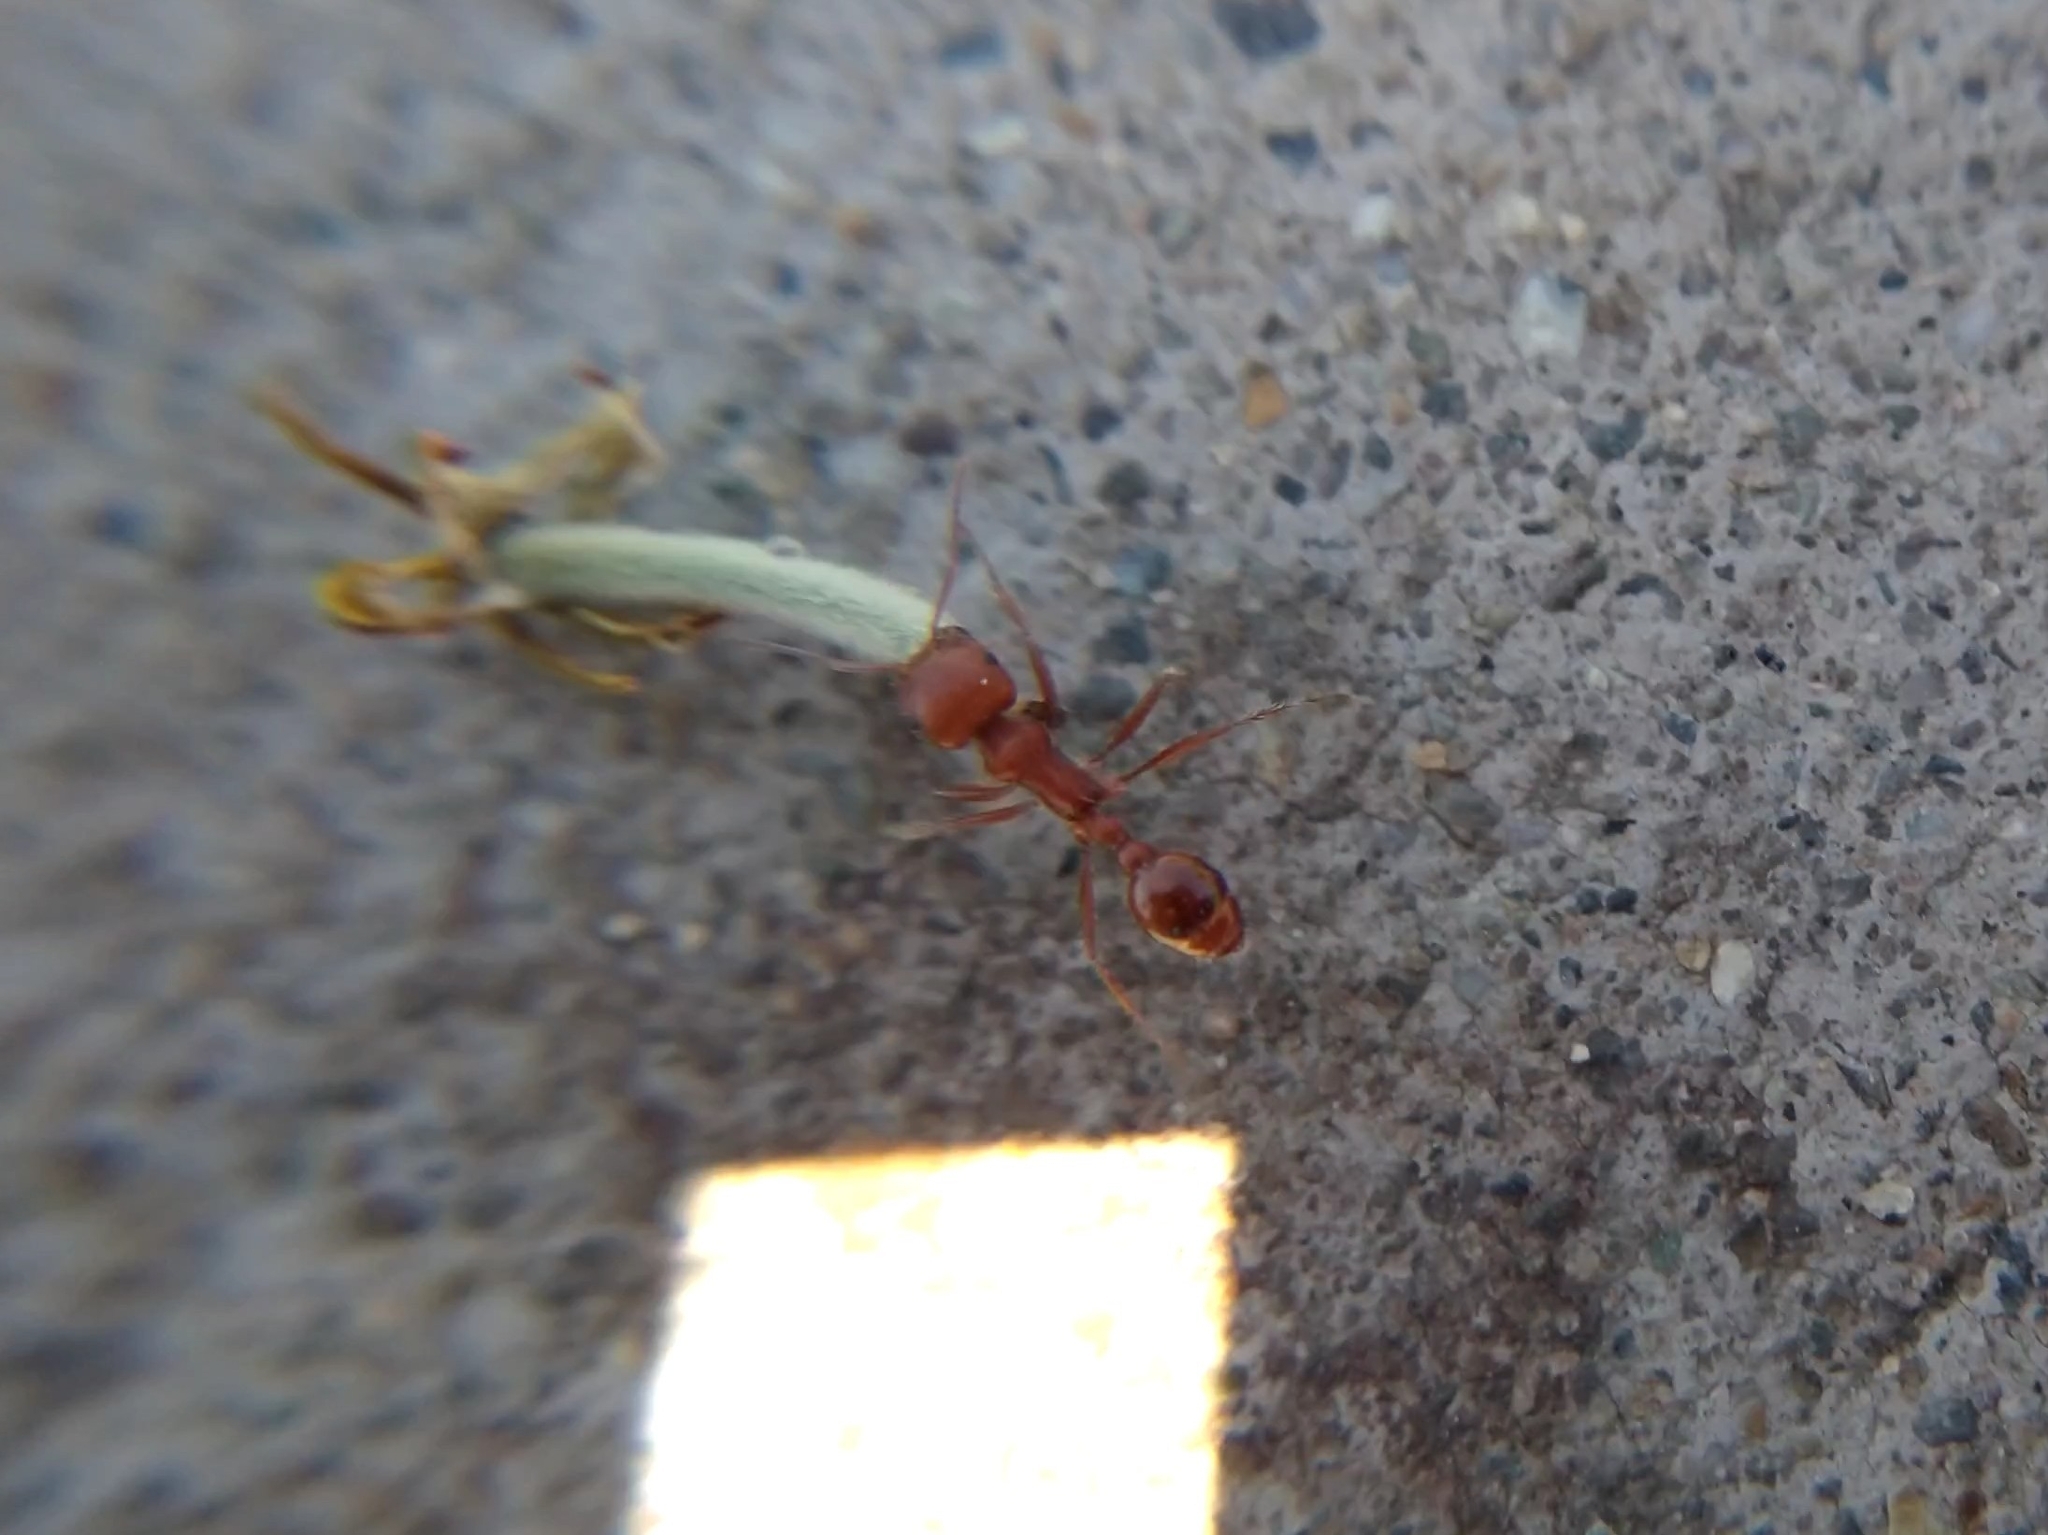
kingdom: Animalia
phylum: Arthropoda
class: Insecta
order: Hymenoptera
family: Formicidae
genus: Pogonomyrmex
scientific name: Pogonomyrmex
